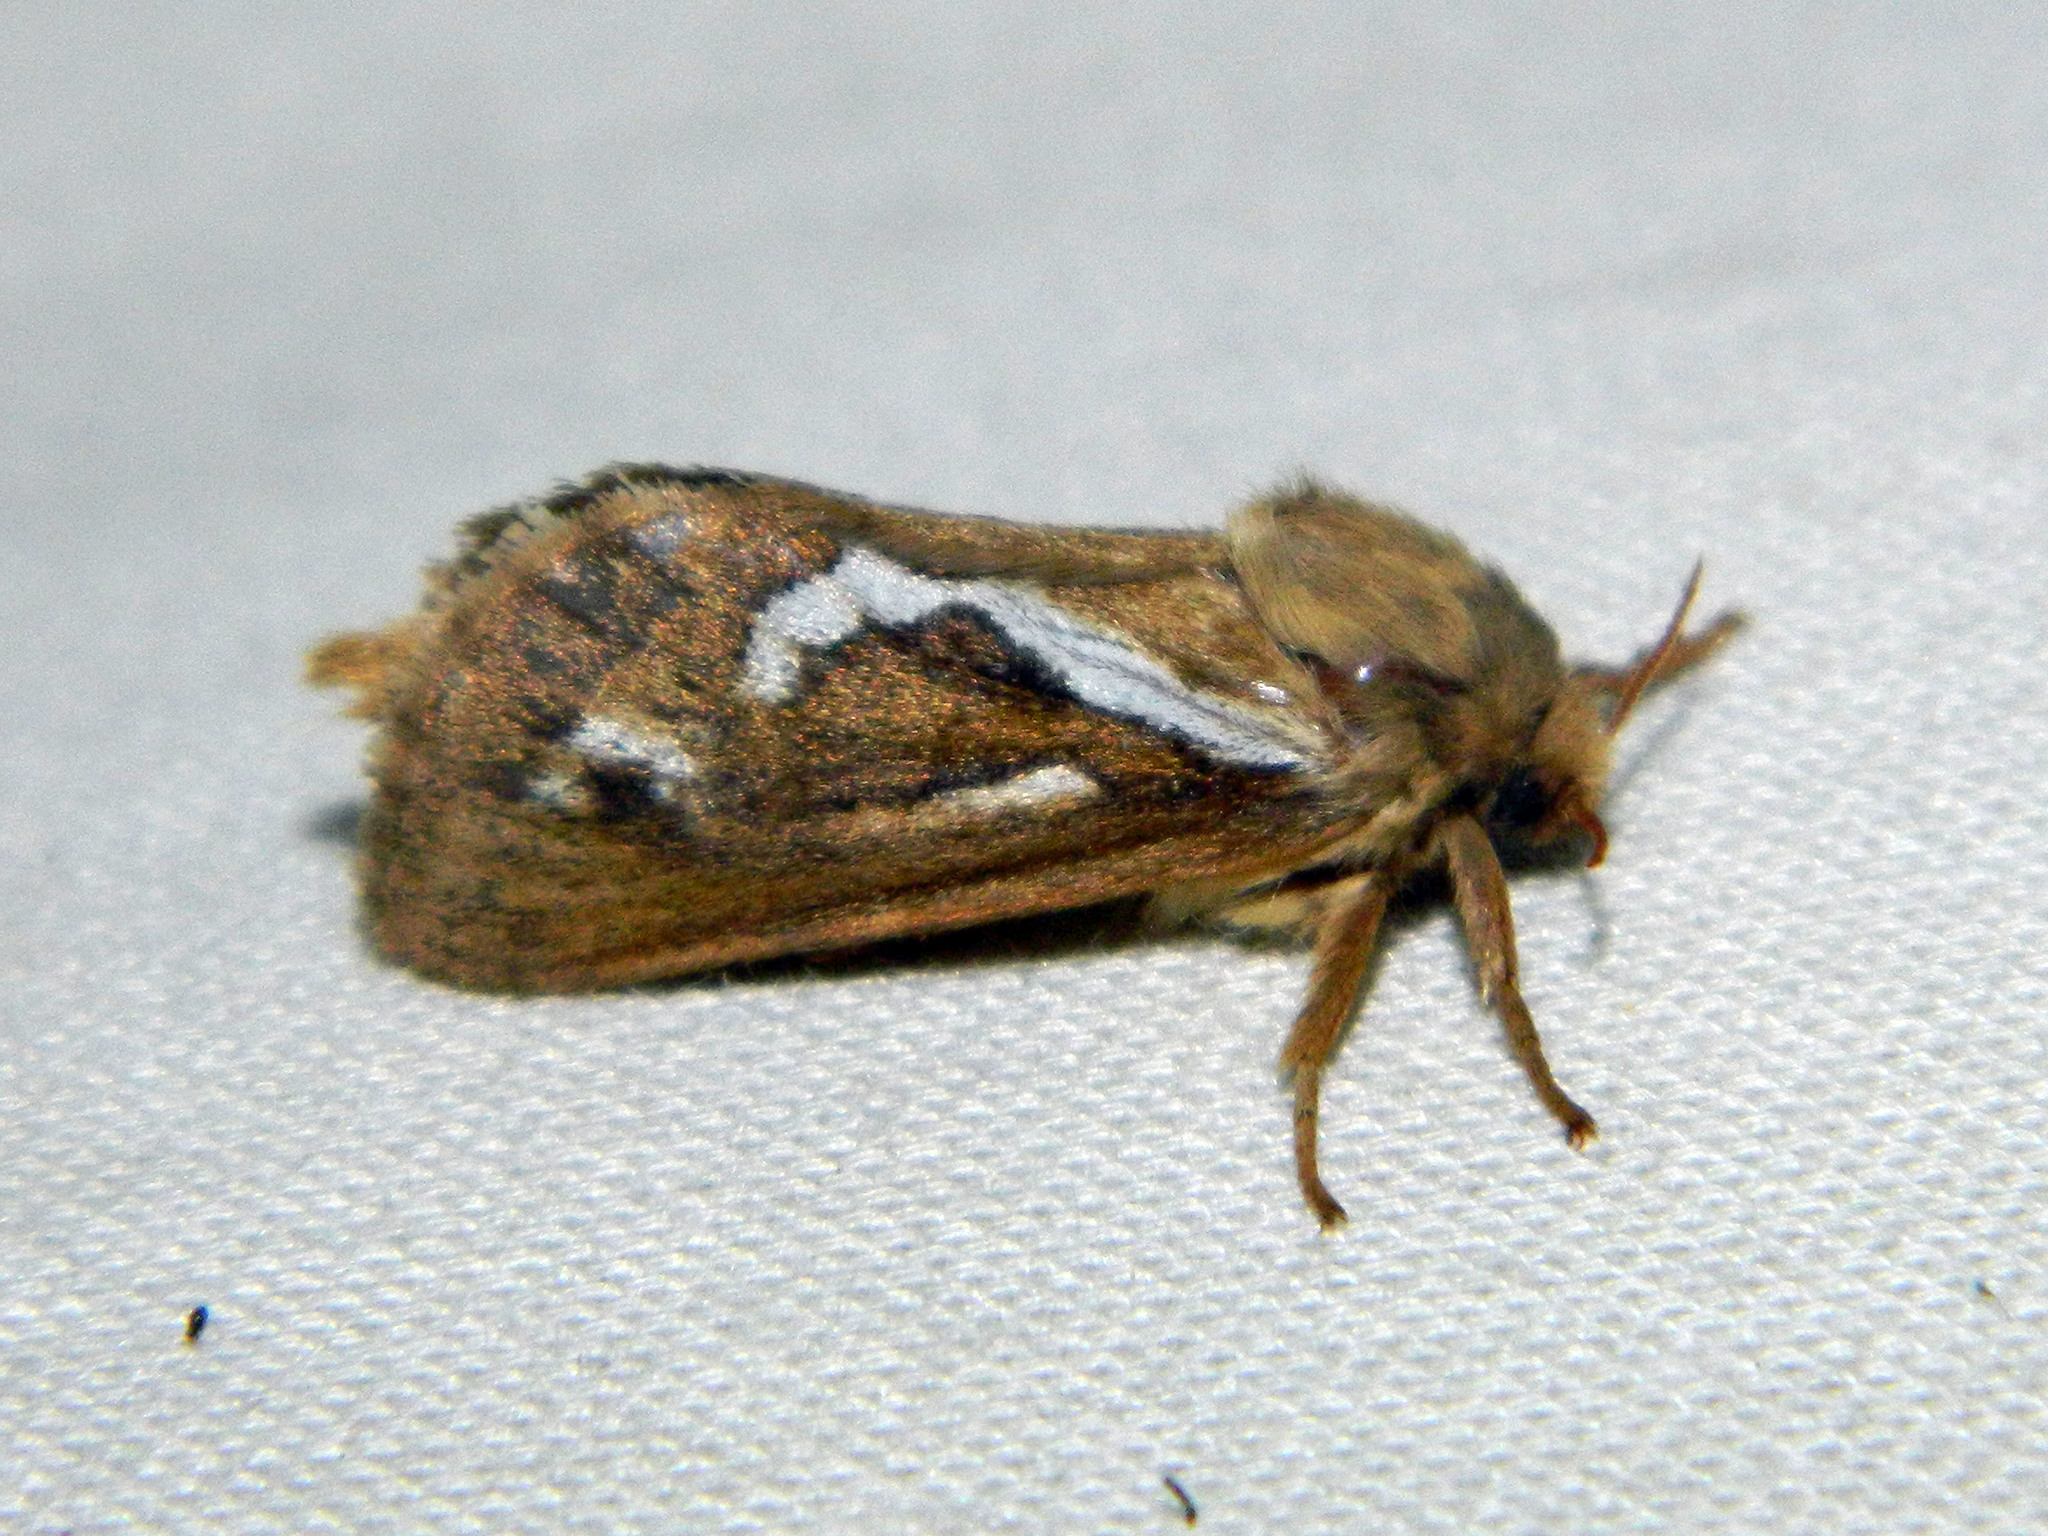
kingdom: Animalia
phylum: Arthropoda
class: Insecta
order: Lepidoptera
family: Hepialidae
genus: Korscheltellus
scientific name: Korscheltellus lupulina
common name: Common swift
